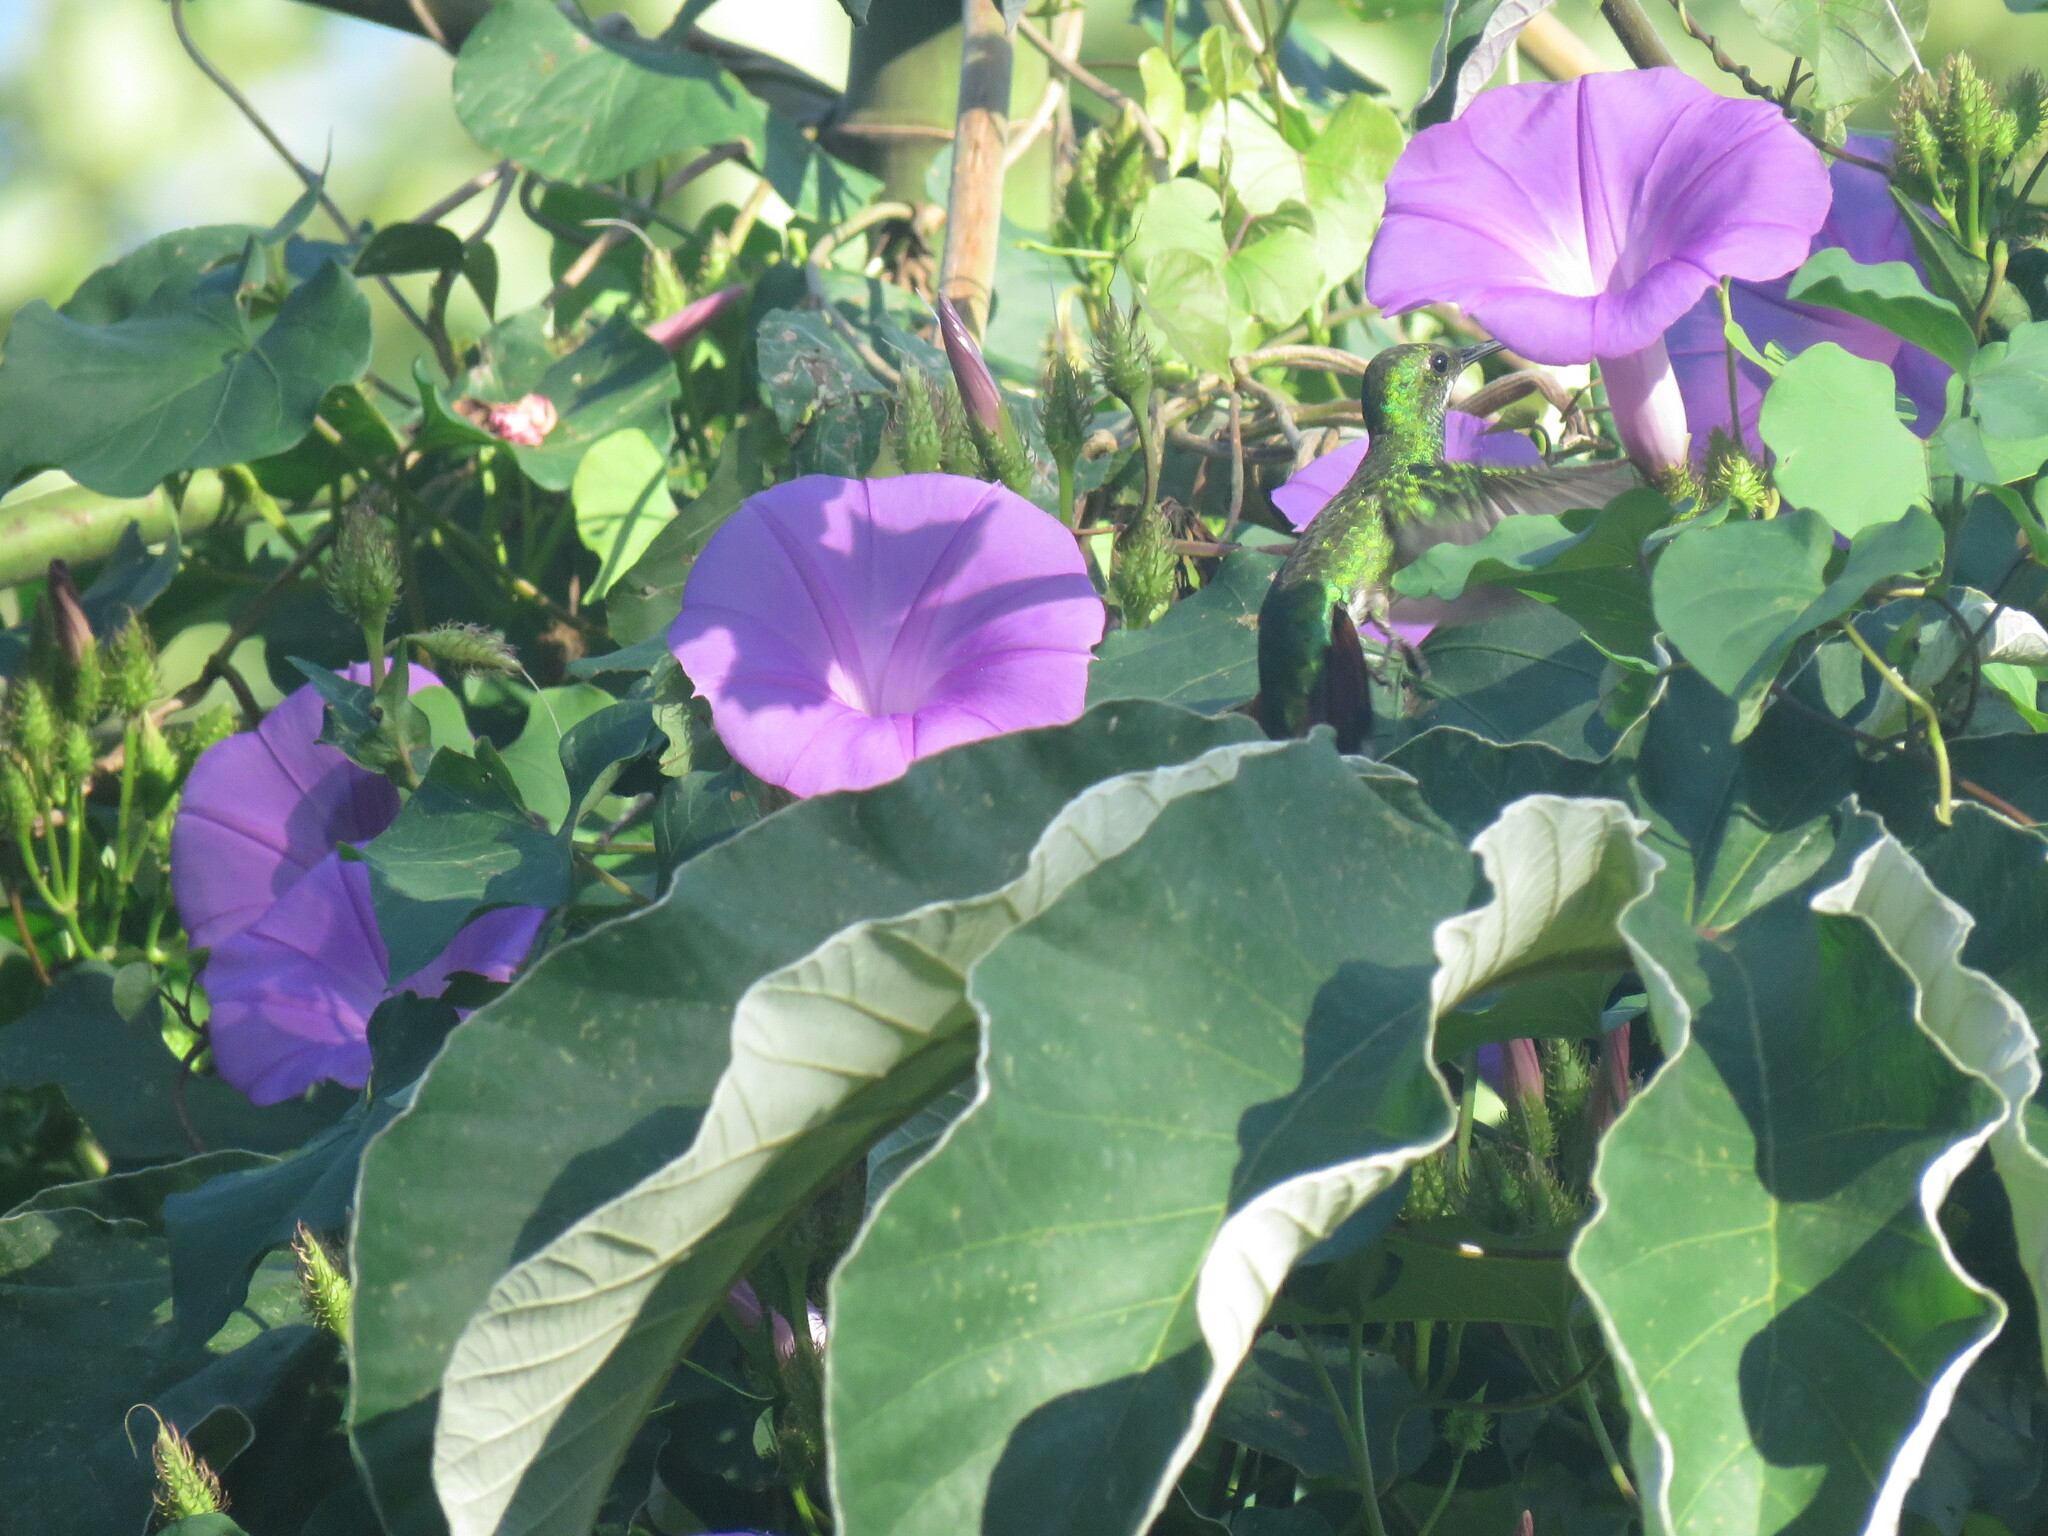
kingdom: Animalia
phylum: Chordata
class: Aves
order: Apodiformes
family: Trochilidae
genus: Anthracothorax
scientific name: Anthracothorax prevostii
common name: Green-breasted mango
